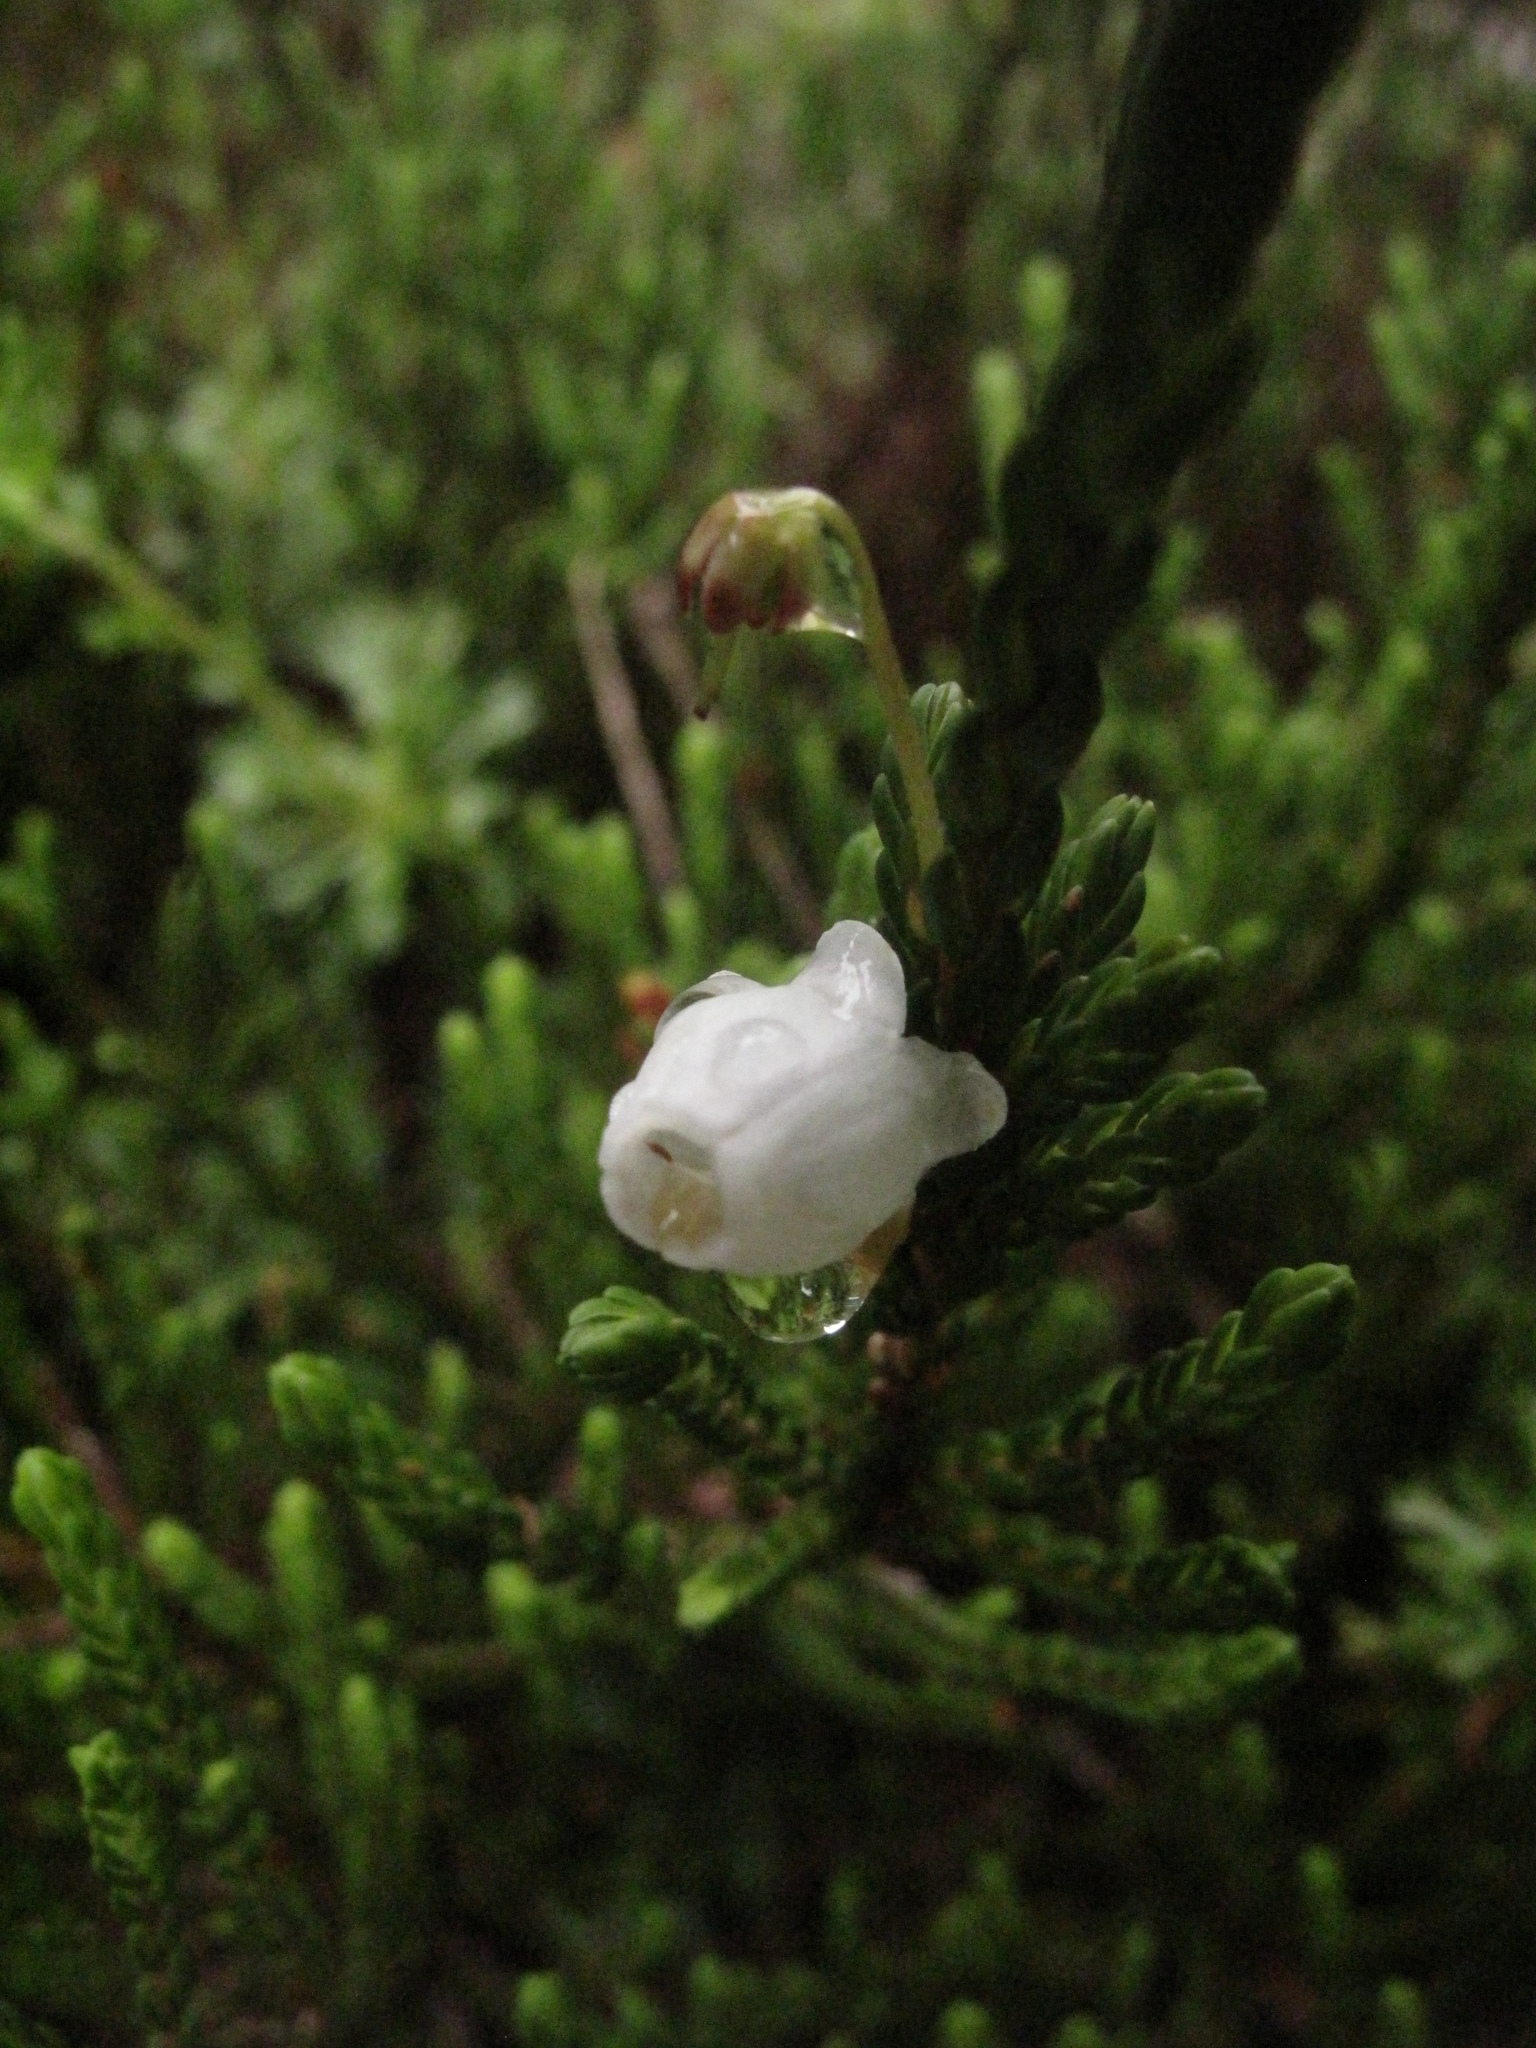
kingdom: Plantae
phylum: Tracheophyta
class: Magnoliopsida
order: Ericales
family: Ericaceae
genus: Cassiope
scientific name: Cassiope mertensiana
